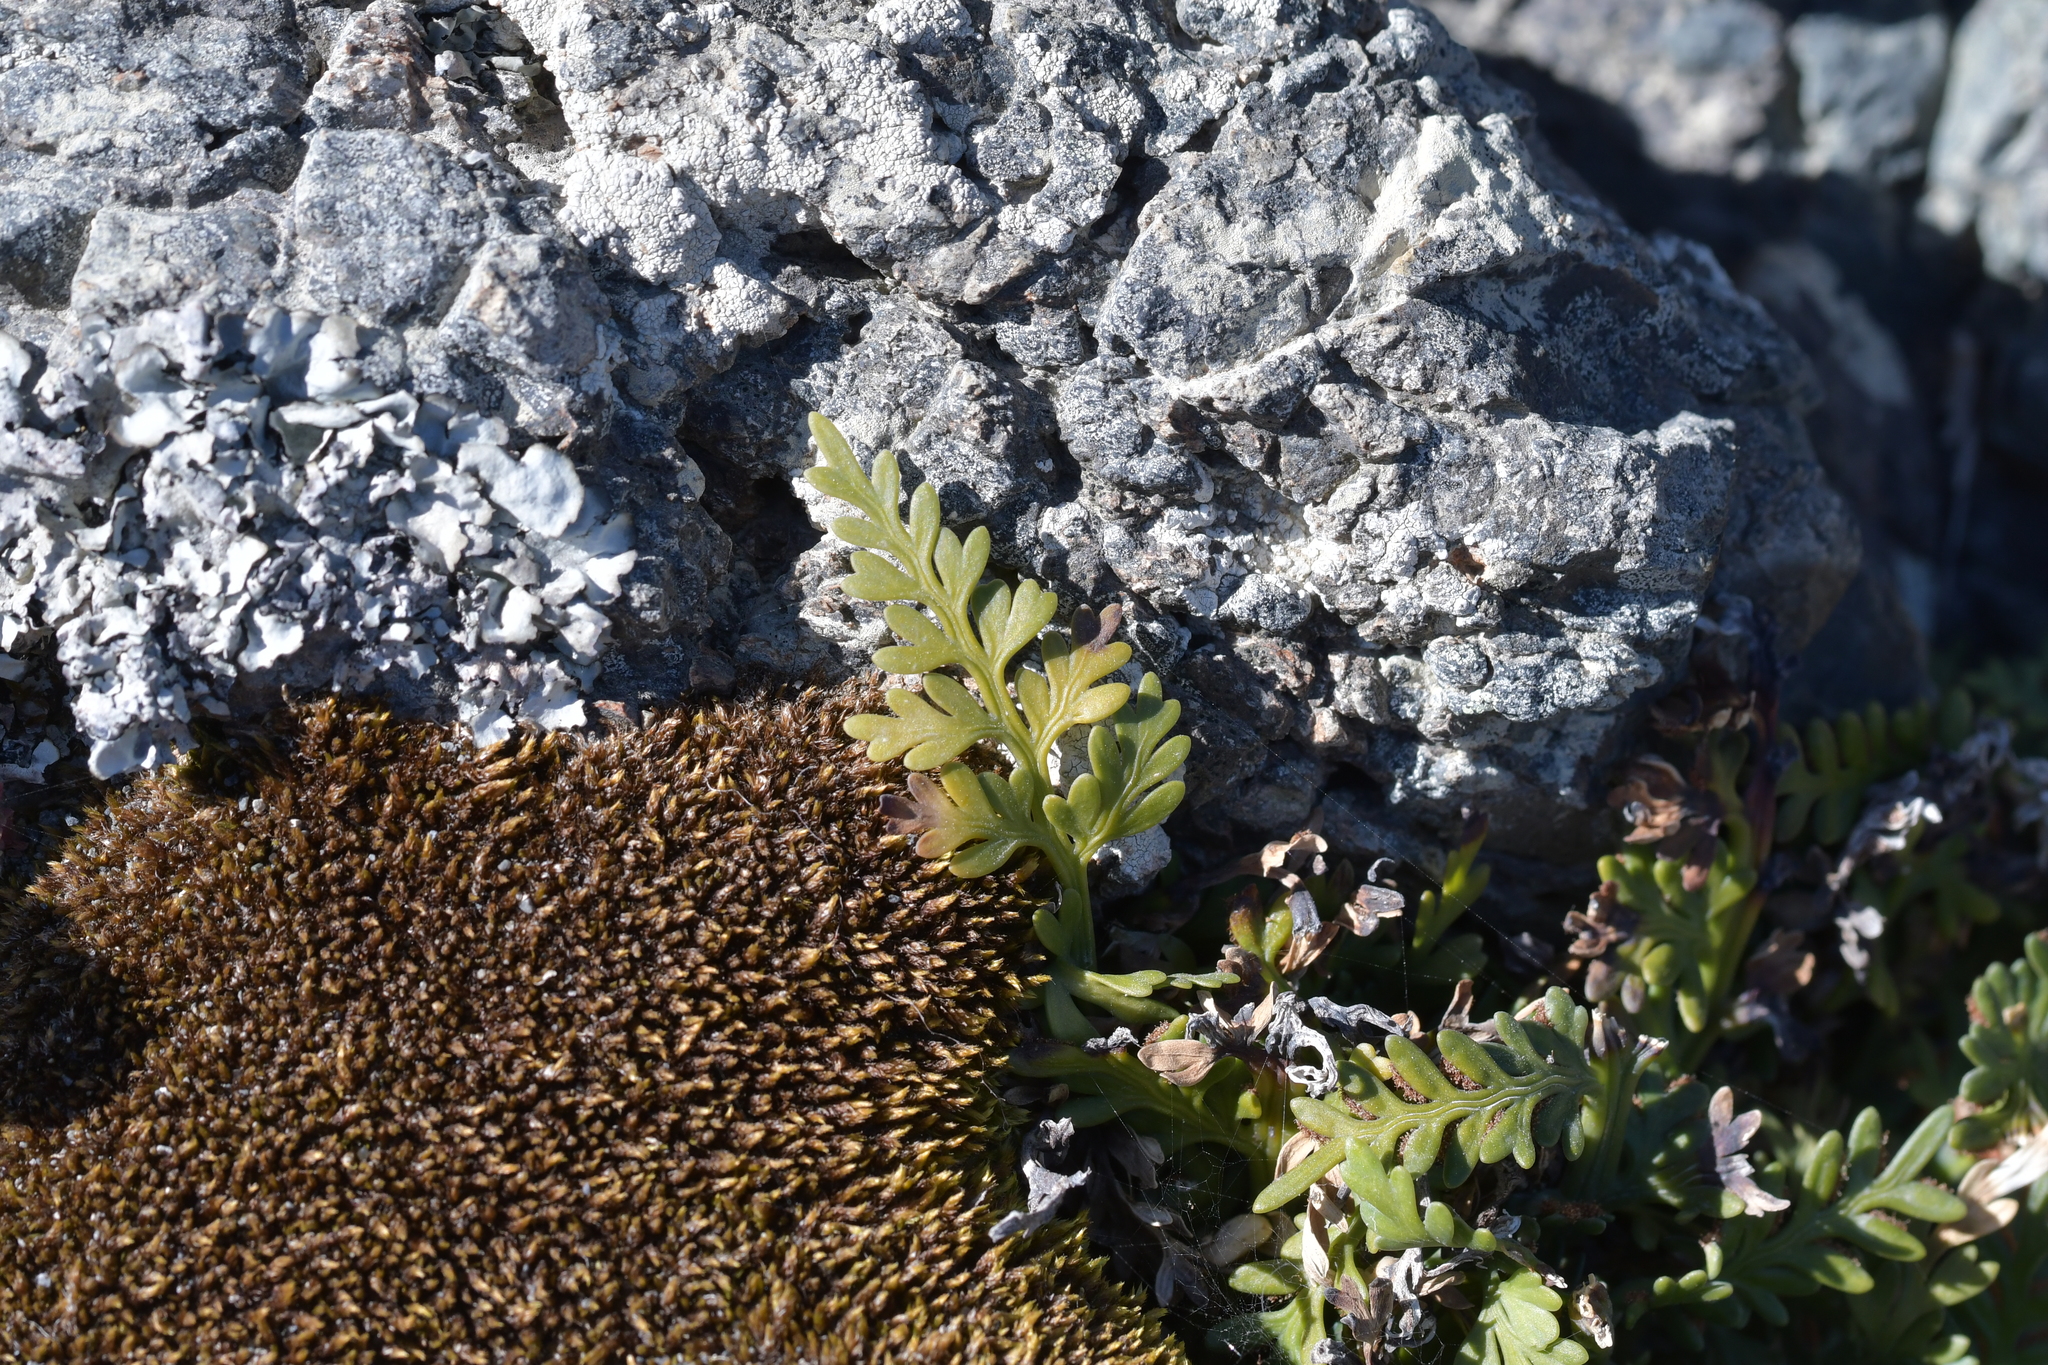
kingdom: Plantae
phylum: Tracheophyta
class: Polypodiopsida
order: Polypodiales
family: Aspleniaceae
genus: Asplenium
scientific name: Asplenium appendiculatum
